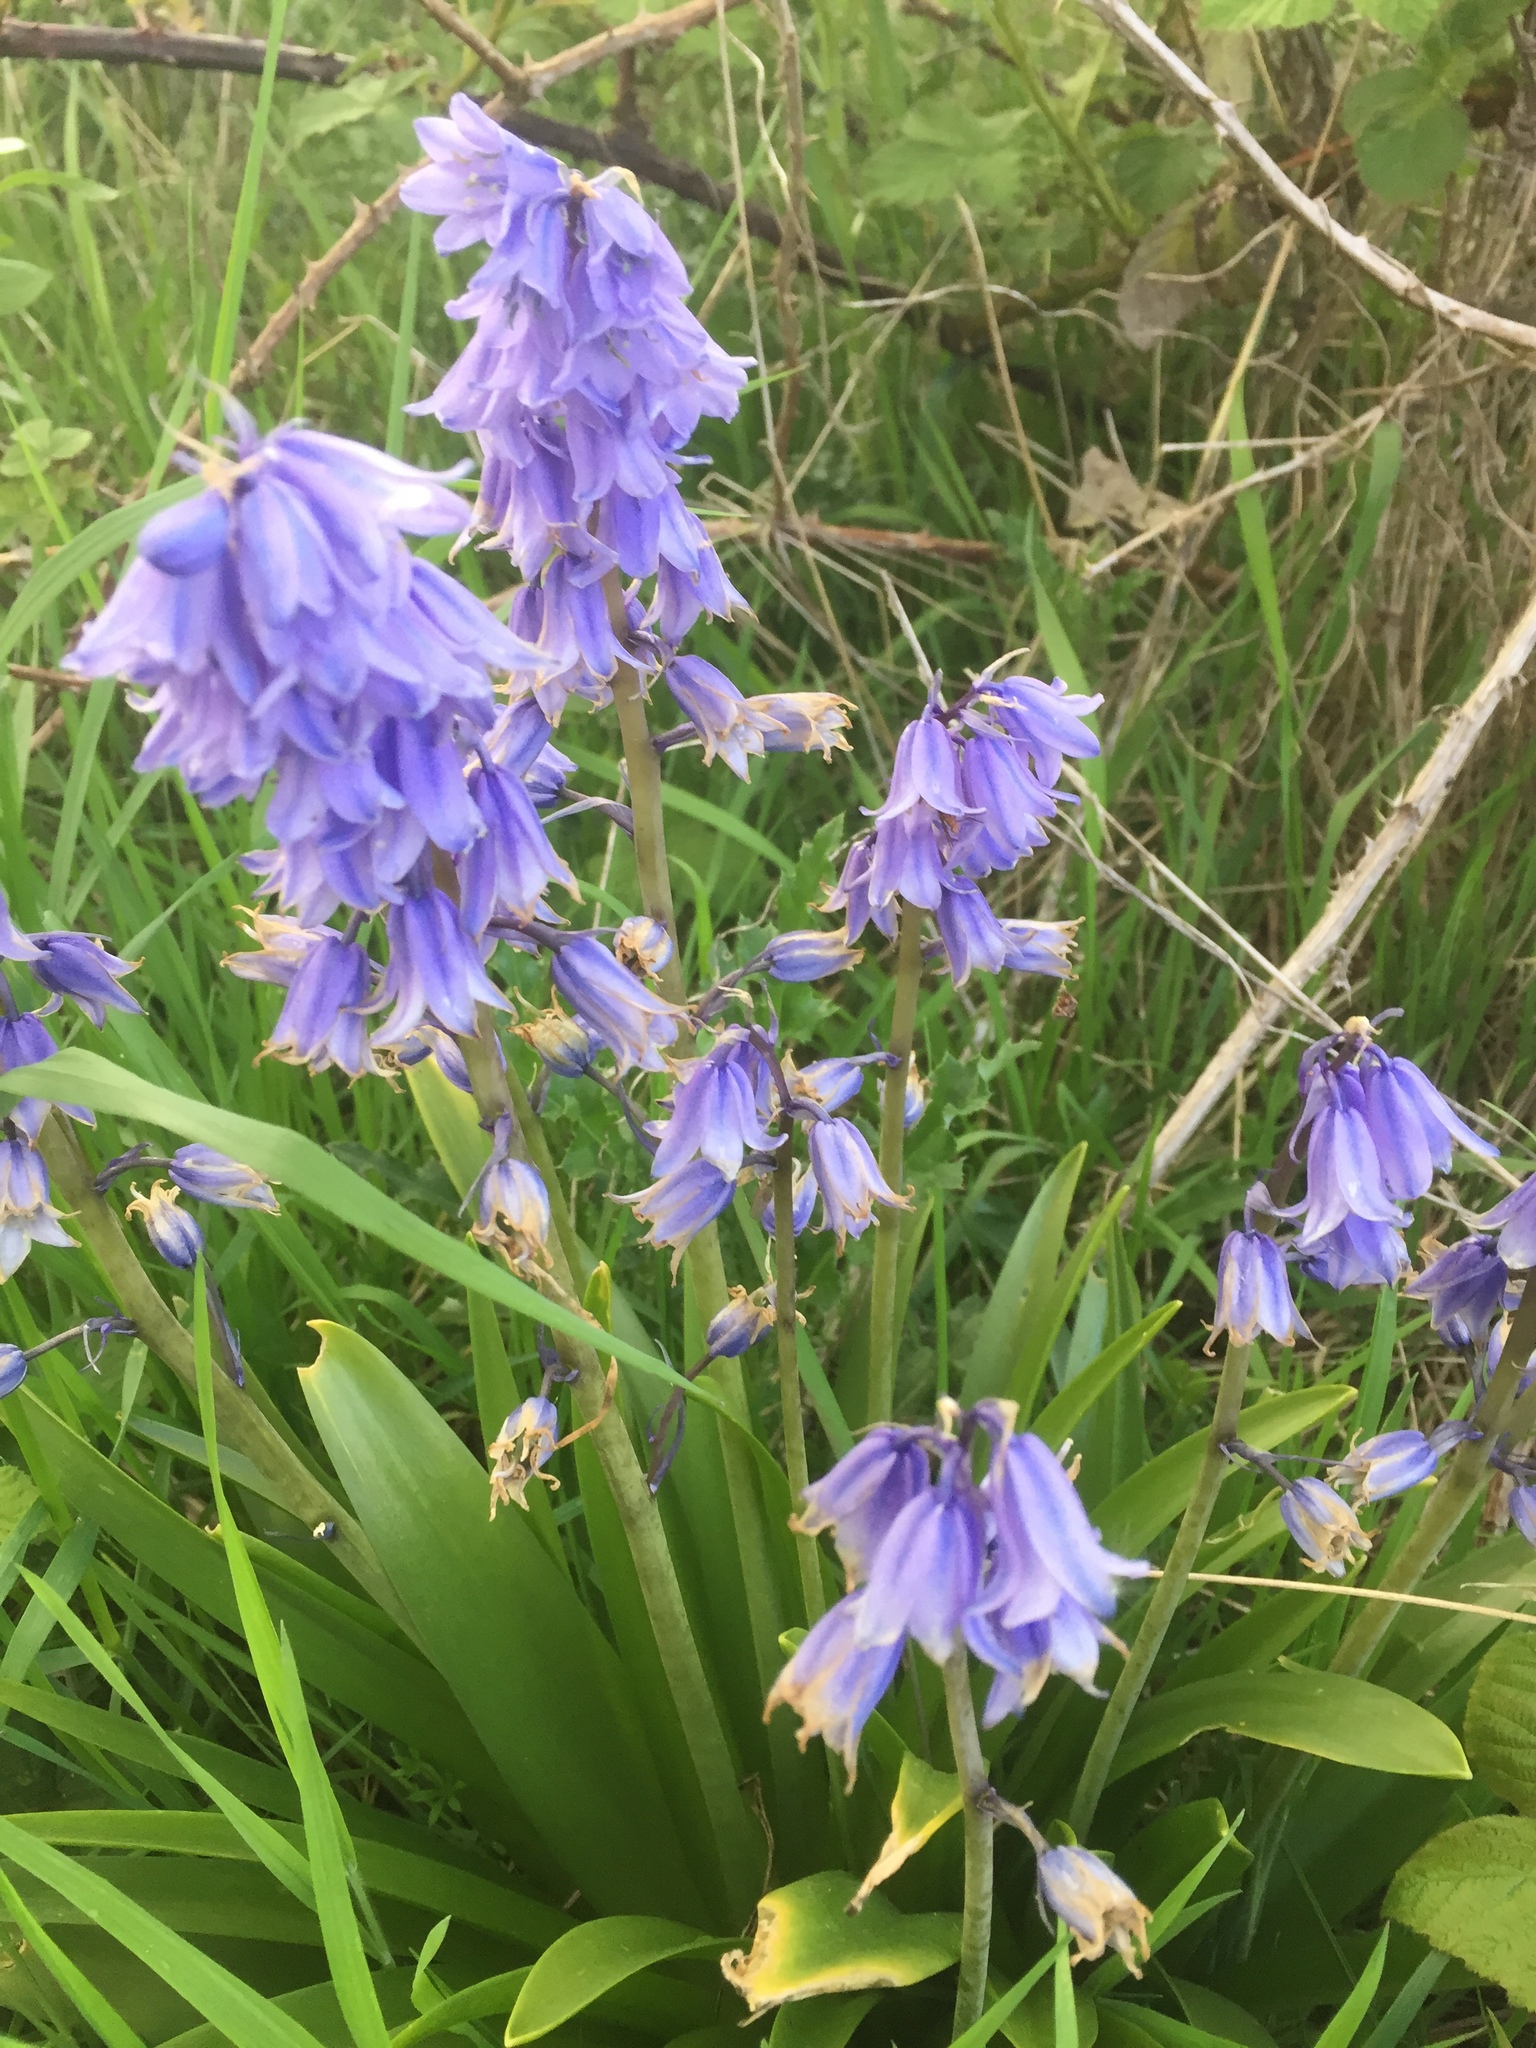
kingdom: Plantae
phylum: Tracheophyta
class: Liliopsida
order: Asparagales
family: Asparagaceae
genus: Hyacinthoides
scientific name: Hyacinthoides non-scripta
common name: Bluebell
